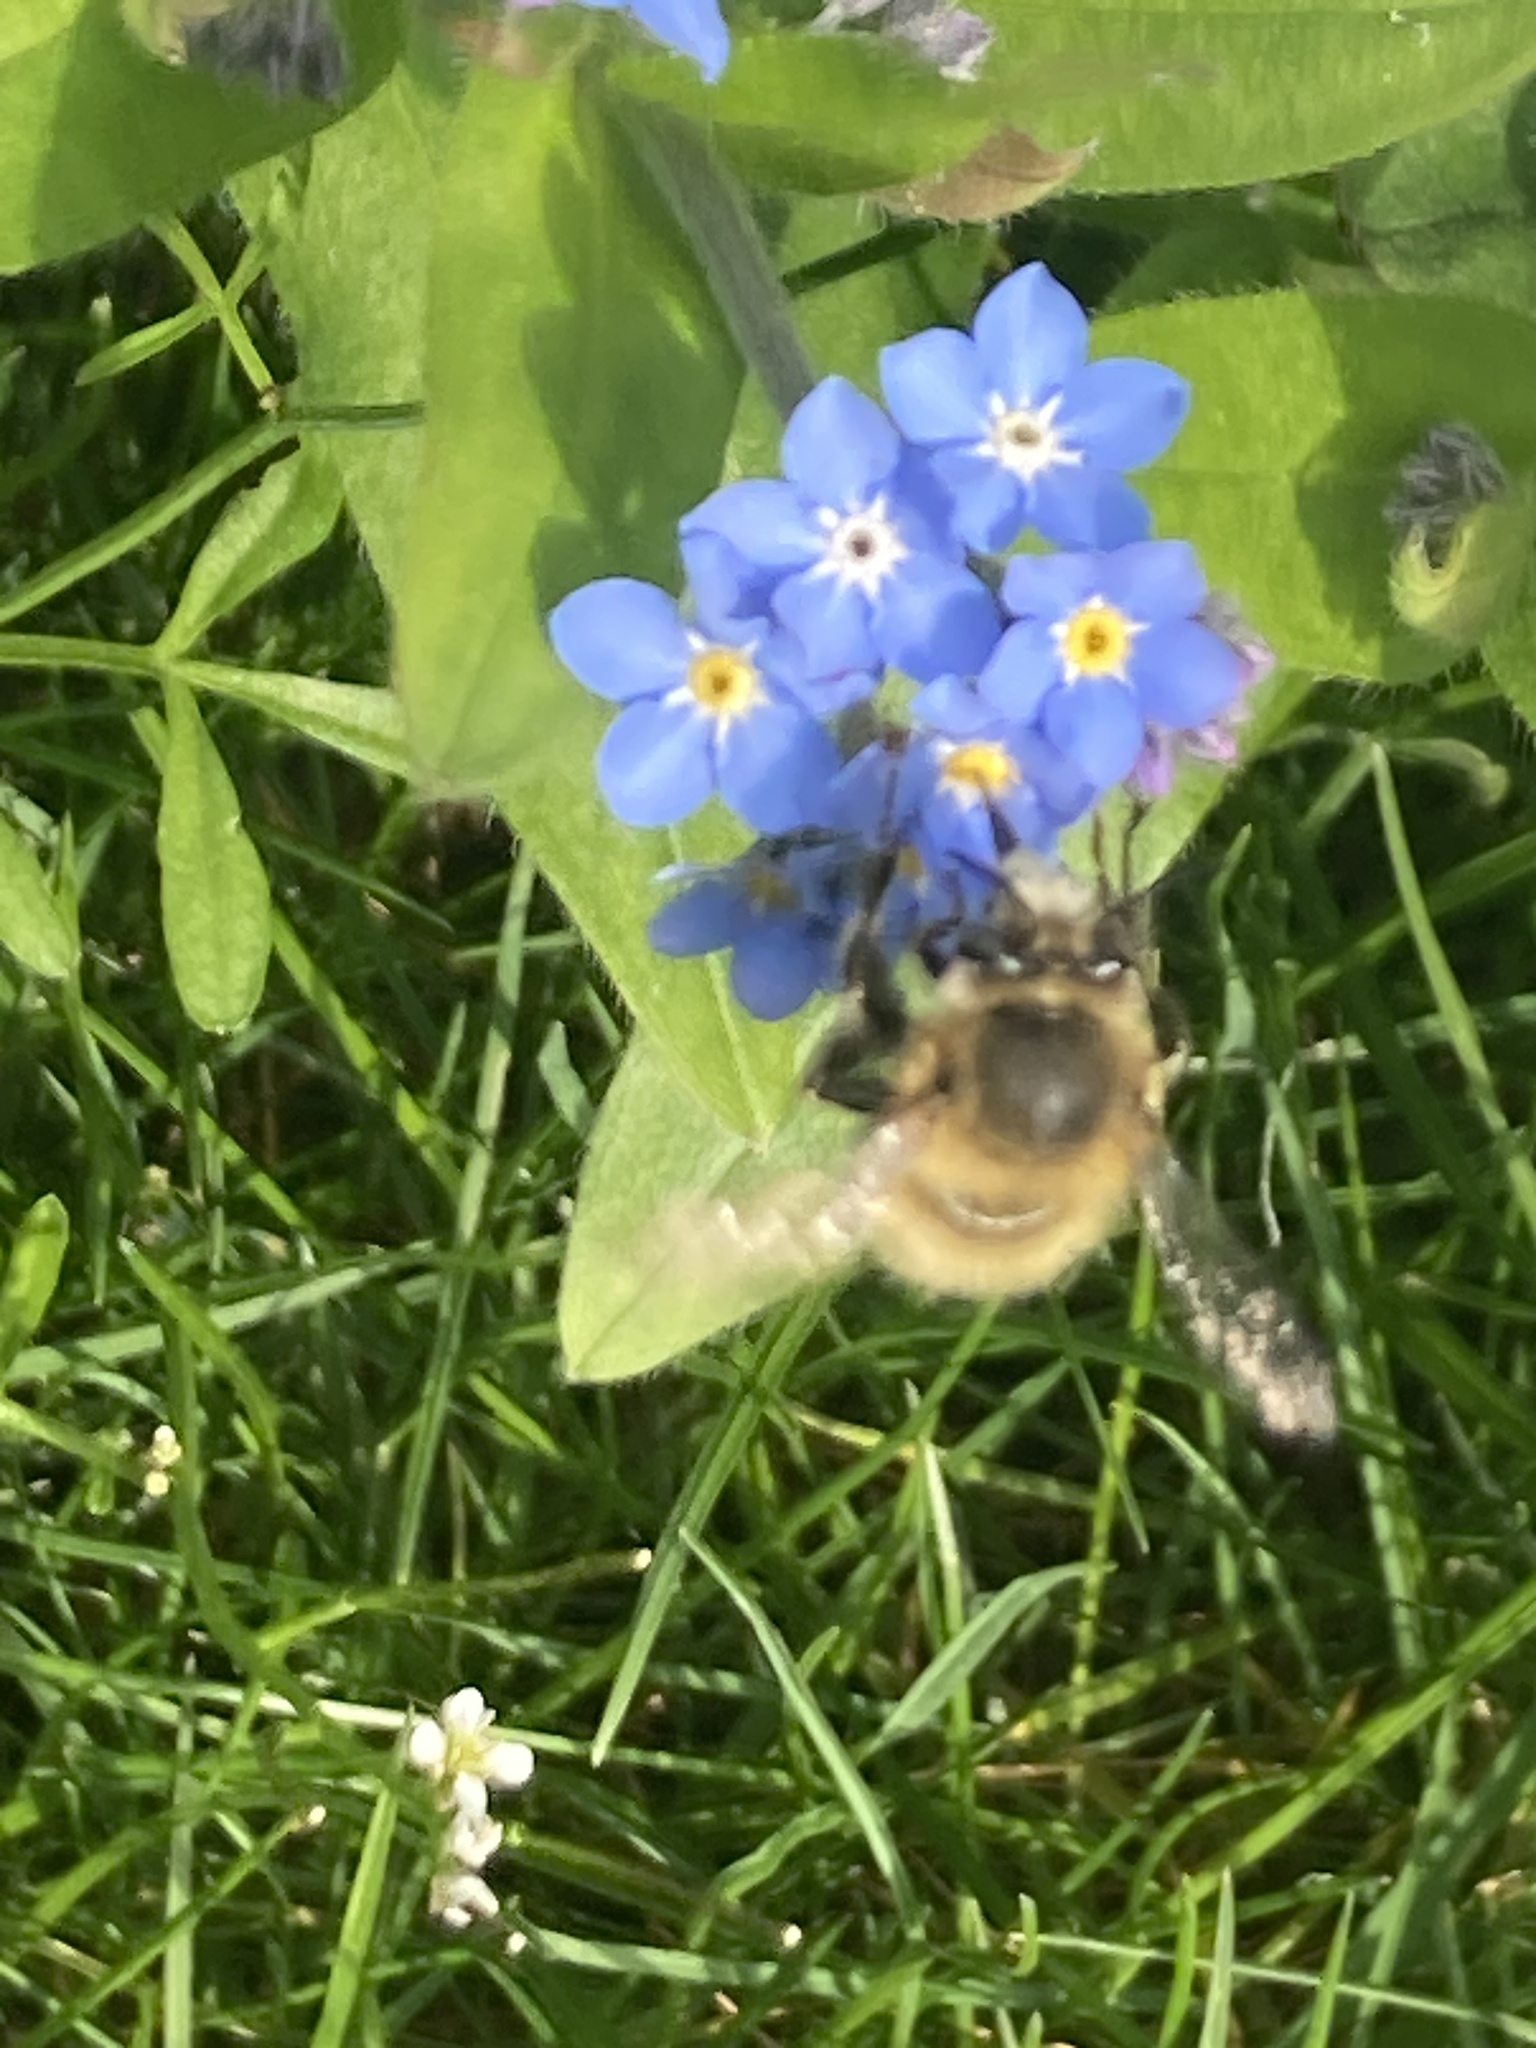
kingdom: Animalia
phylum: Arthropoda
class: Insecta
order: Hymenoptera
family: Apidae
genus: Anthophora
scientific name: Anthophora plumipes
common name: Hairy-footed flower bee
